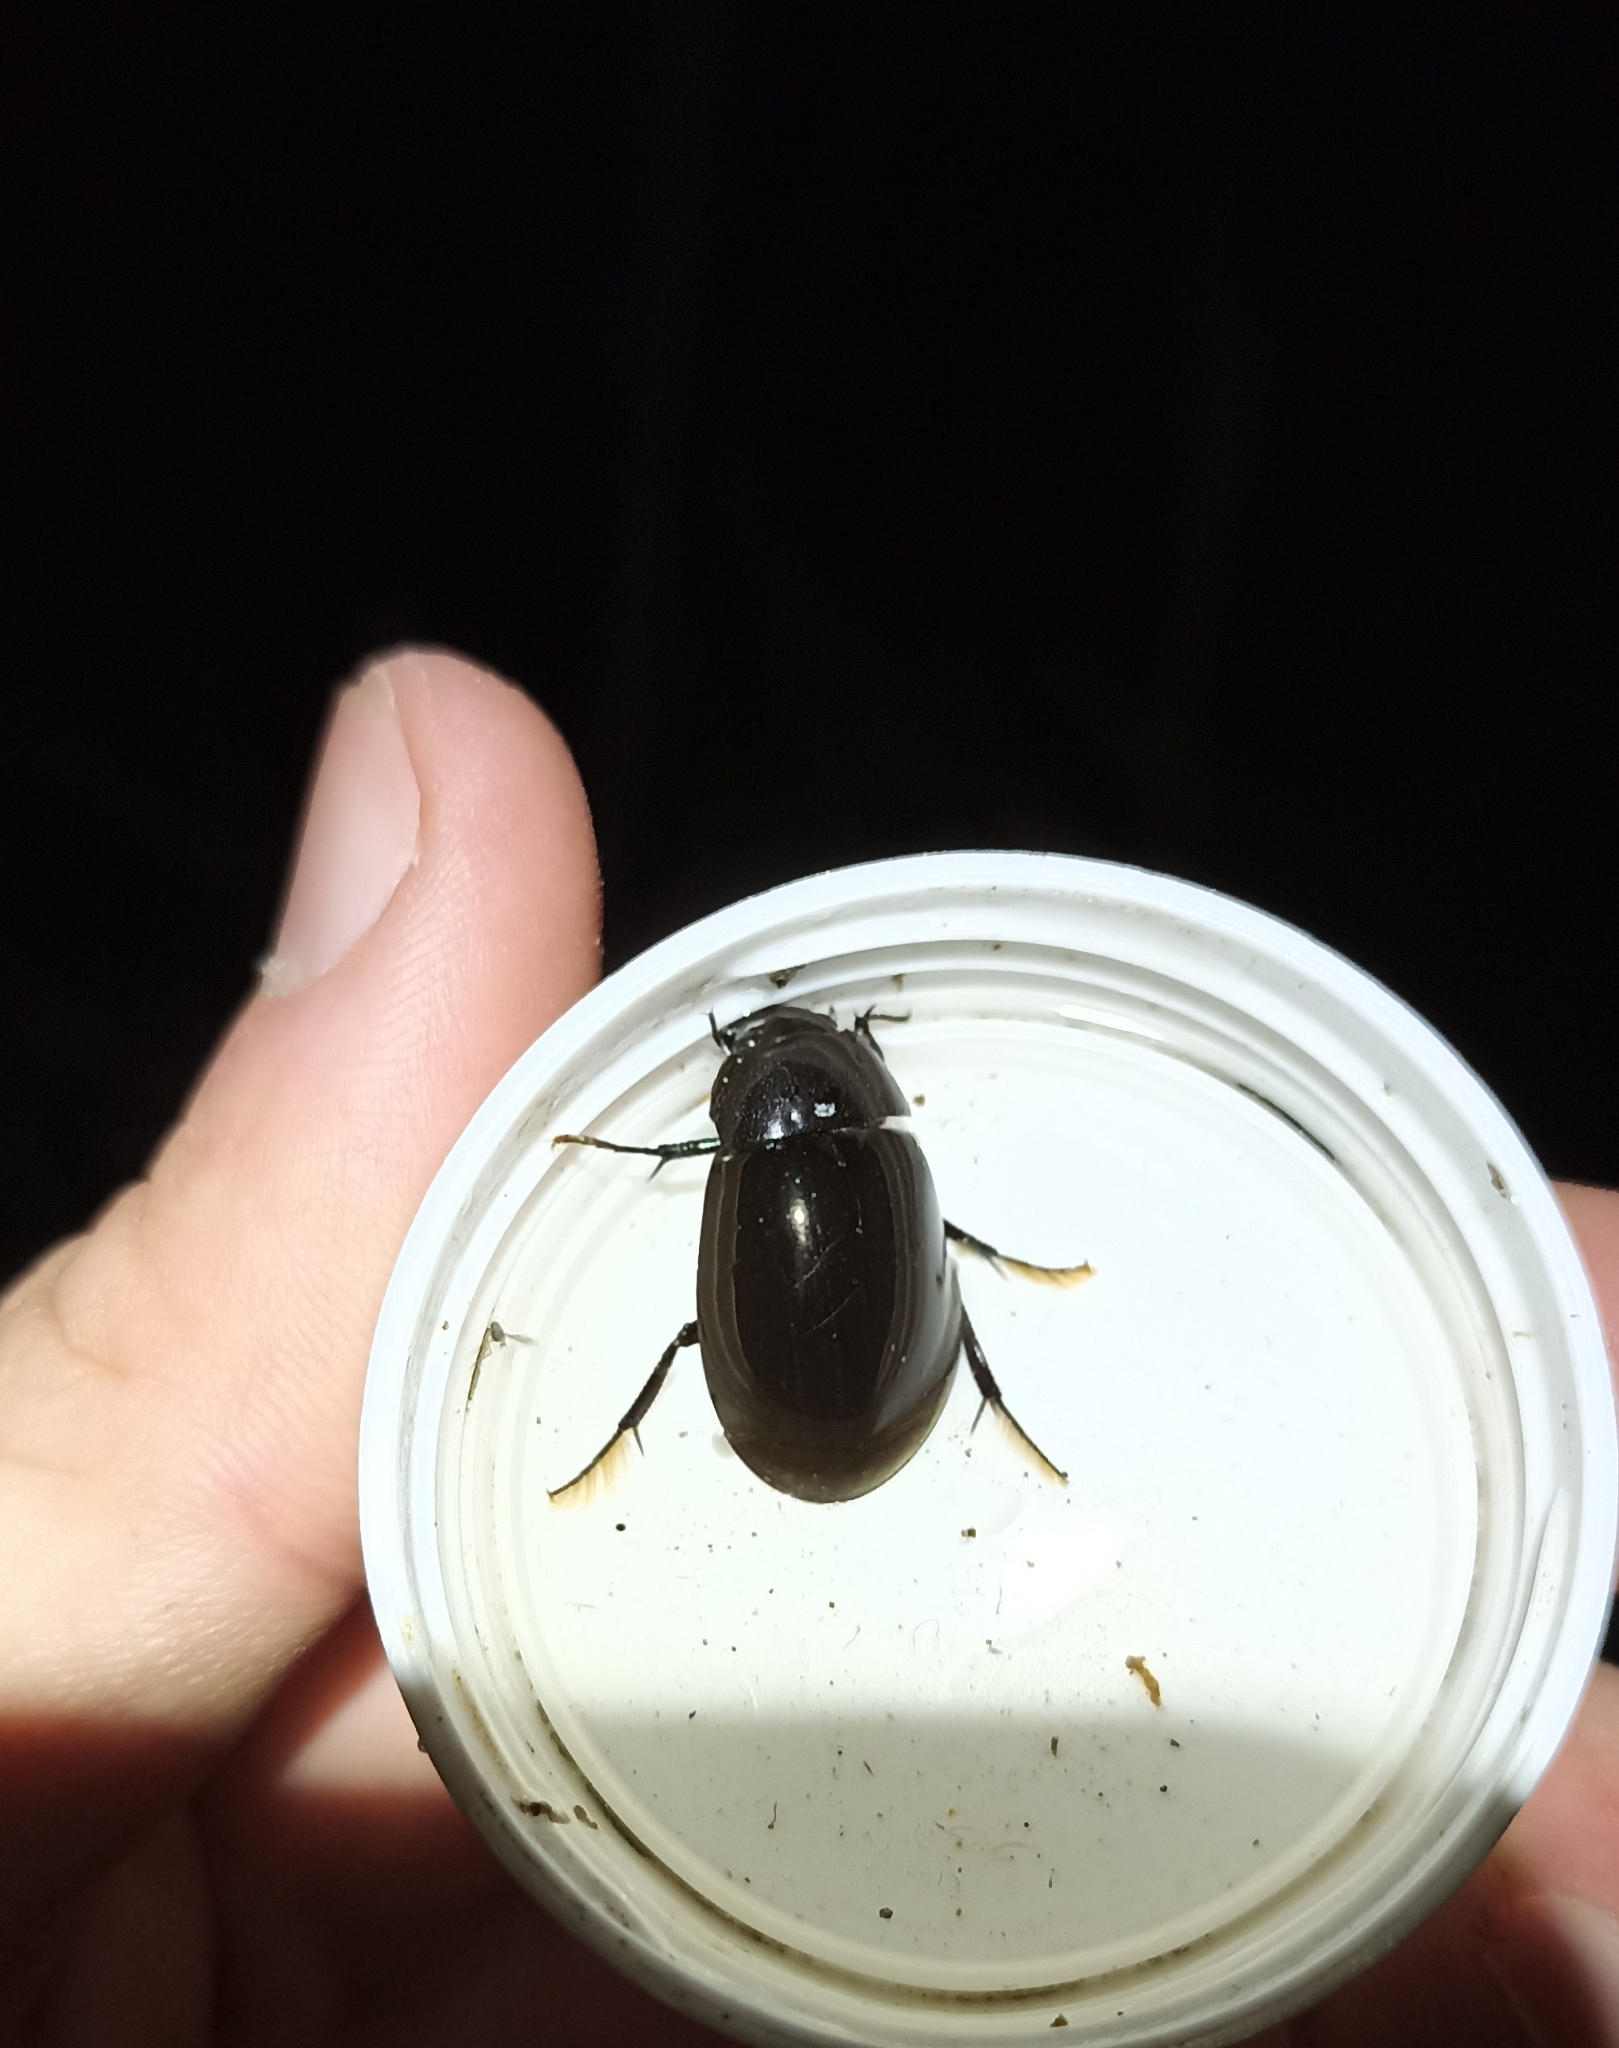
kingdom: Animalia
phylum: Arthropoda
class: Insecta
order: Coleoptera
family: Hydrophilidae
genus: Hydrochara
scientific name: Hydrochara caraboides
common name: Lesser silver water beetle
